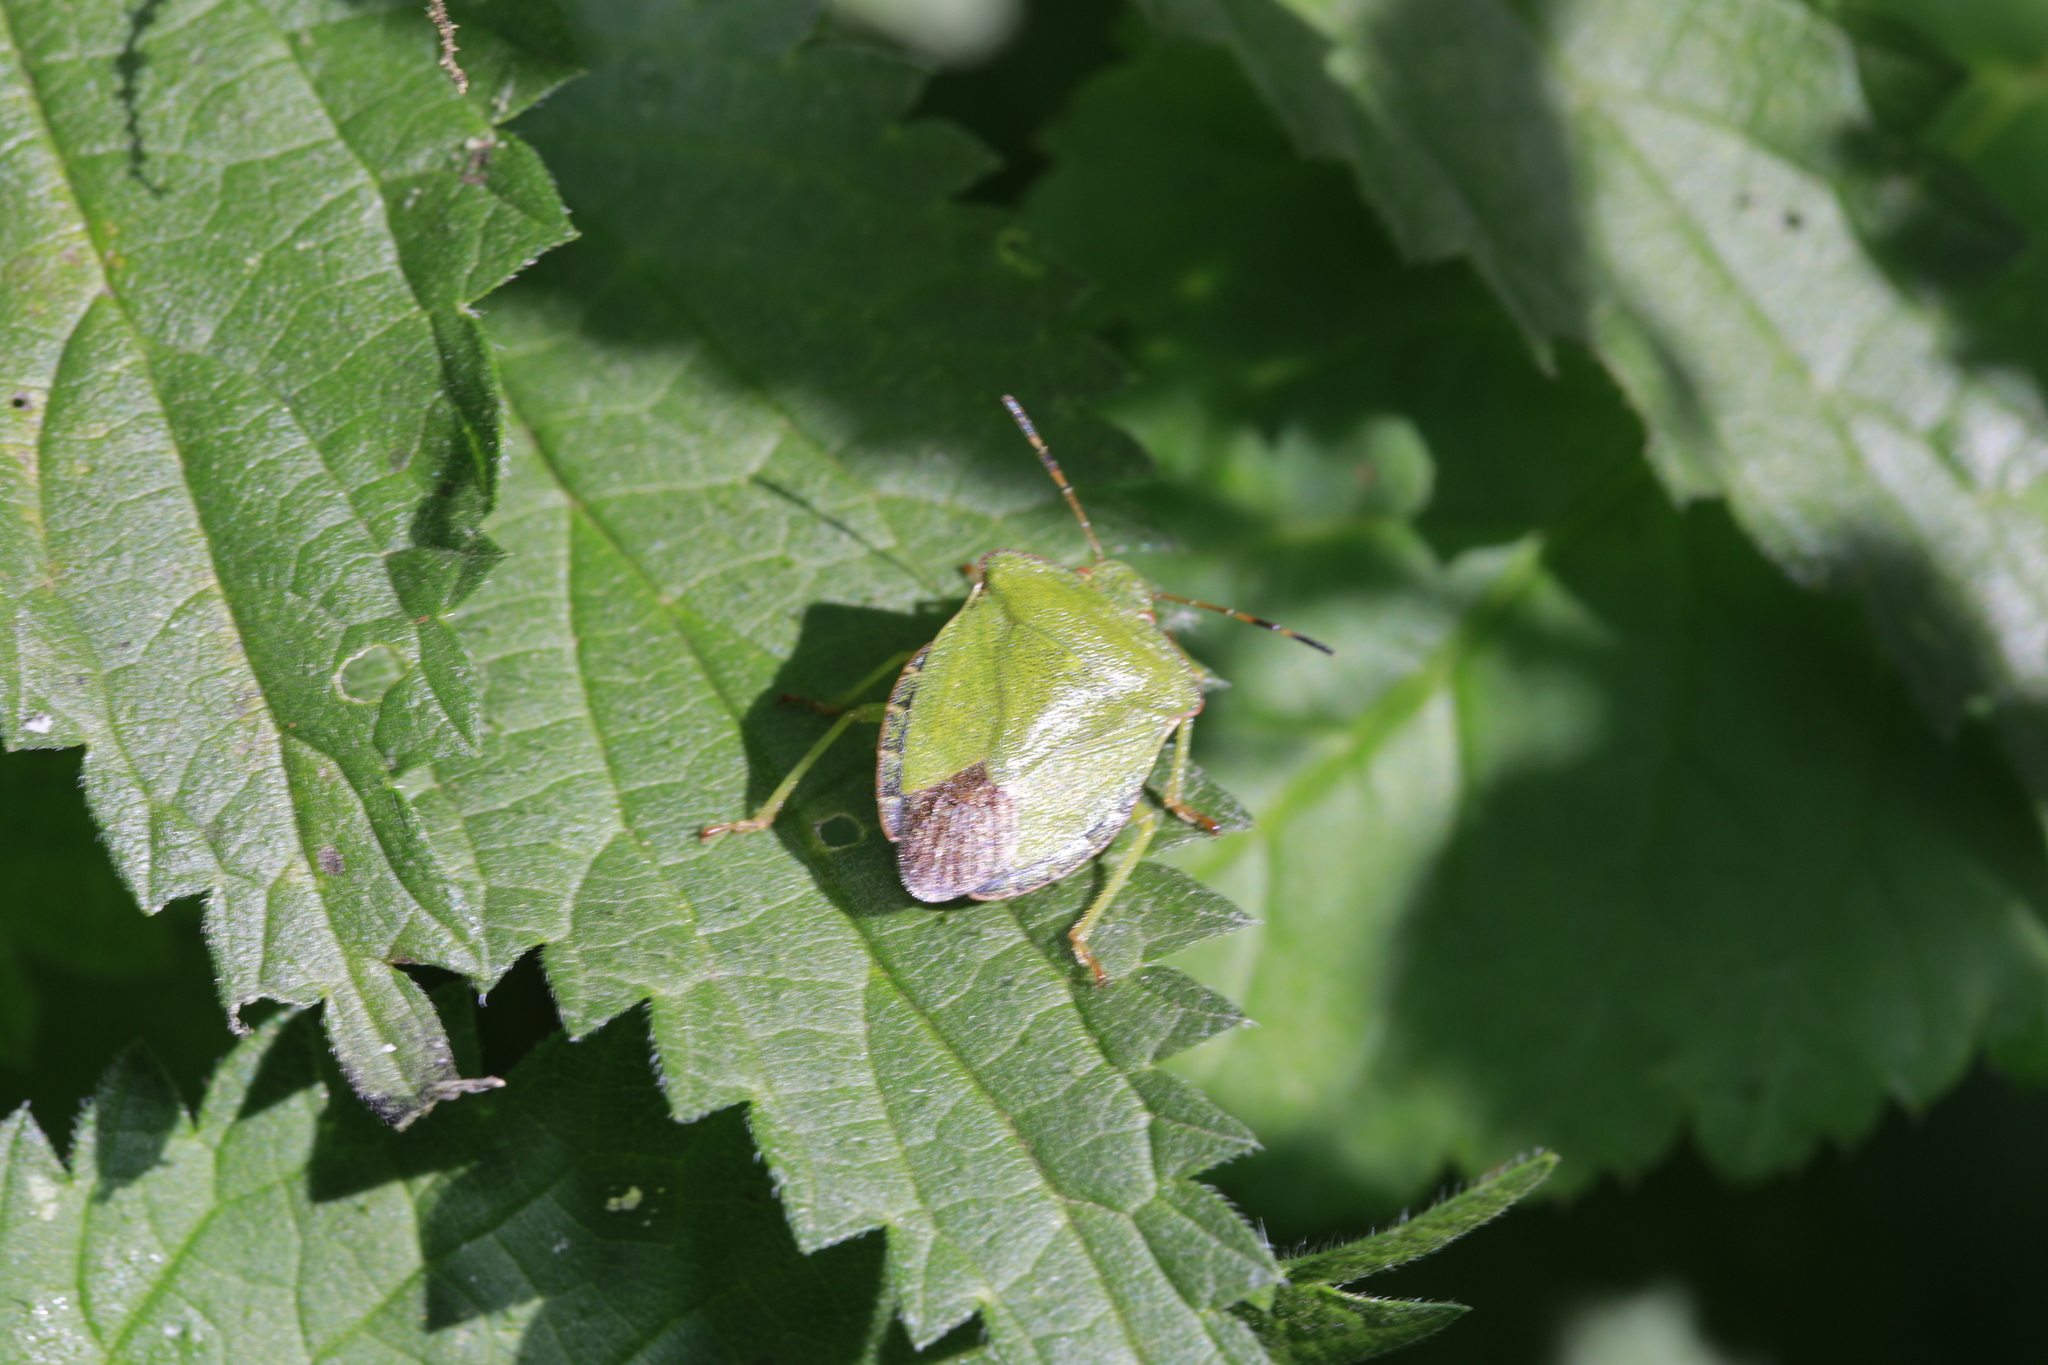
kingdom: Animalia
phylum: Arthropoda
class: Insecta
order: Hemiptera
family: Pentatomidae
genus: Palomena
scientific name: Palomena prasina
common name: Green shieldbug
